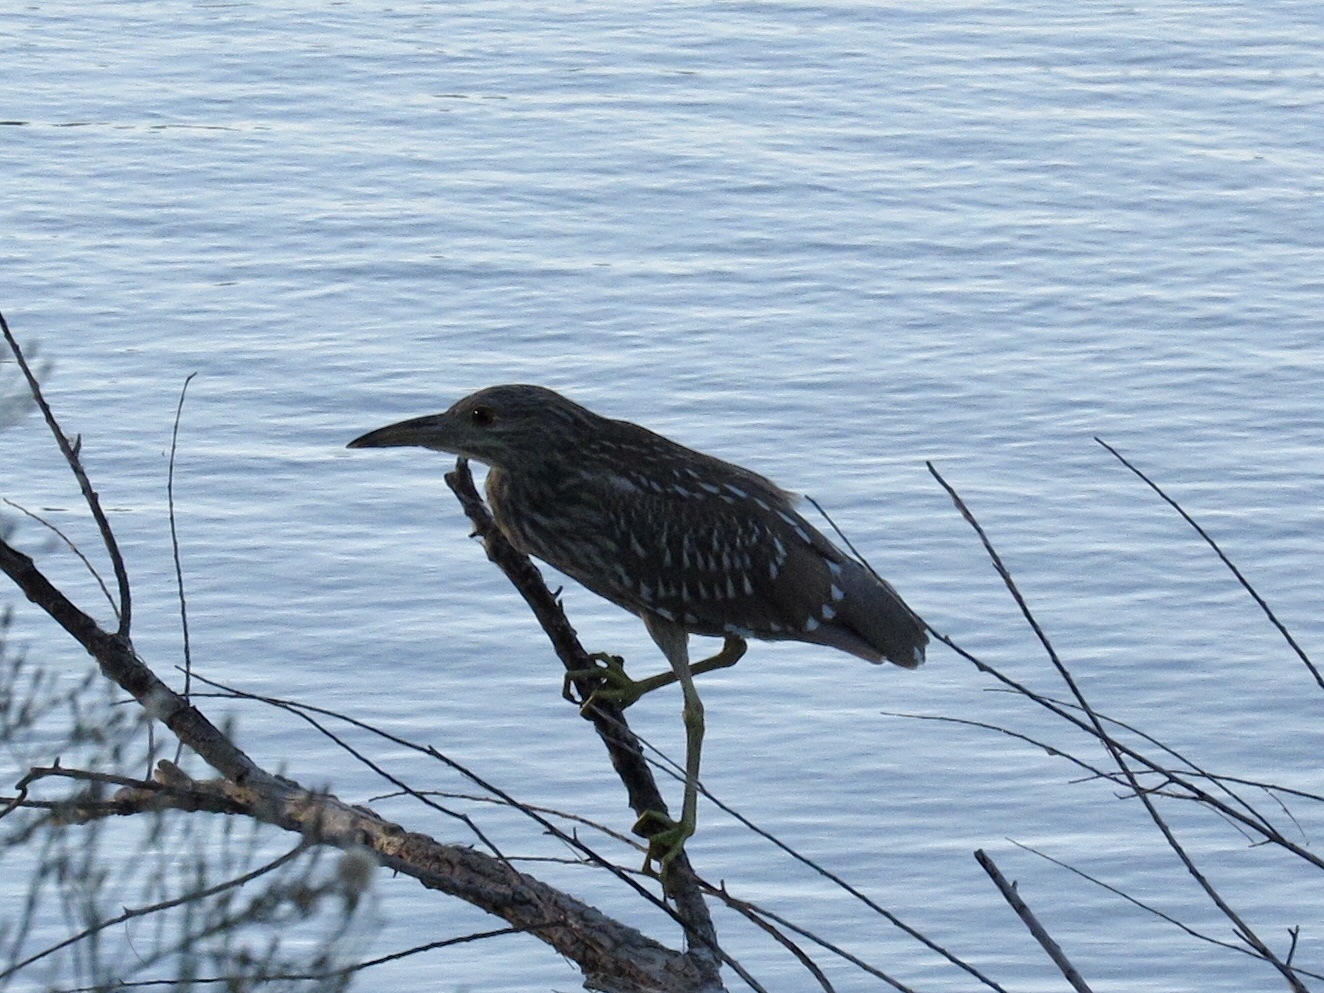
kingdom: Animalia
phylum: Chordata
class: Aves
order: Pelecaniformes
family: Ardeidae
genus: Nycticorax
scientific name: Nycticorax nycticorax
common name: Black-crowned night heron
